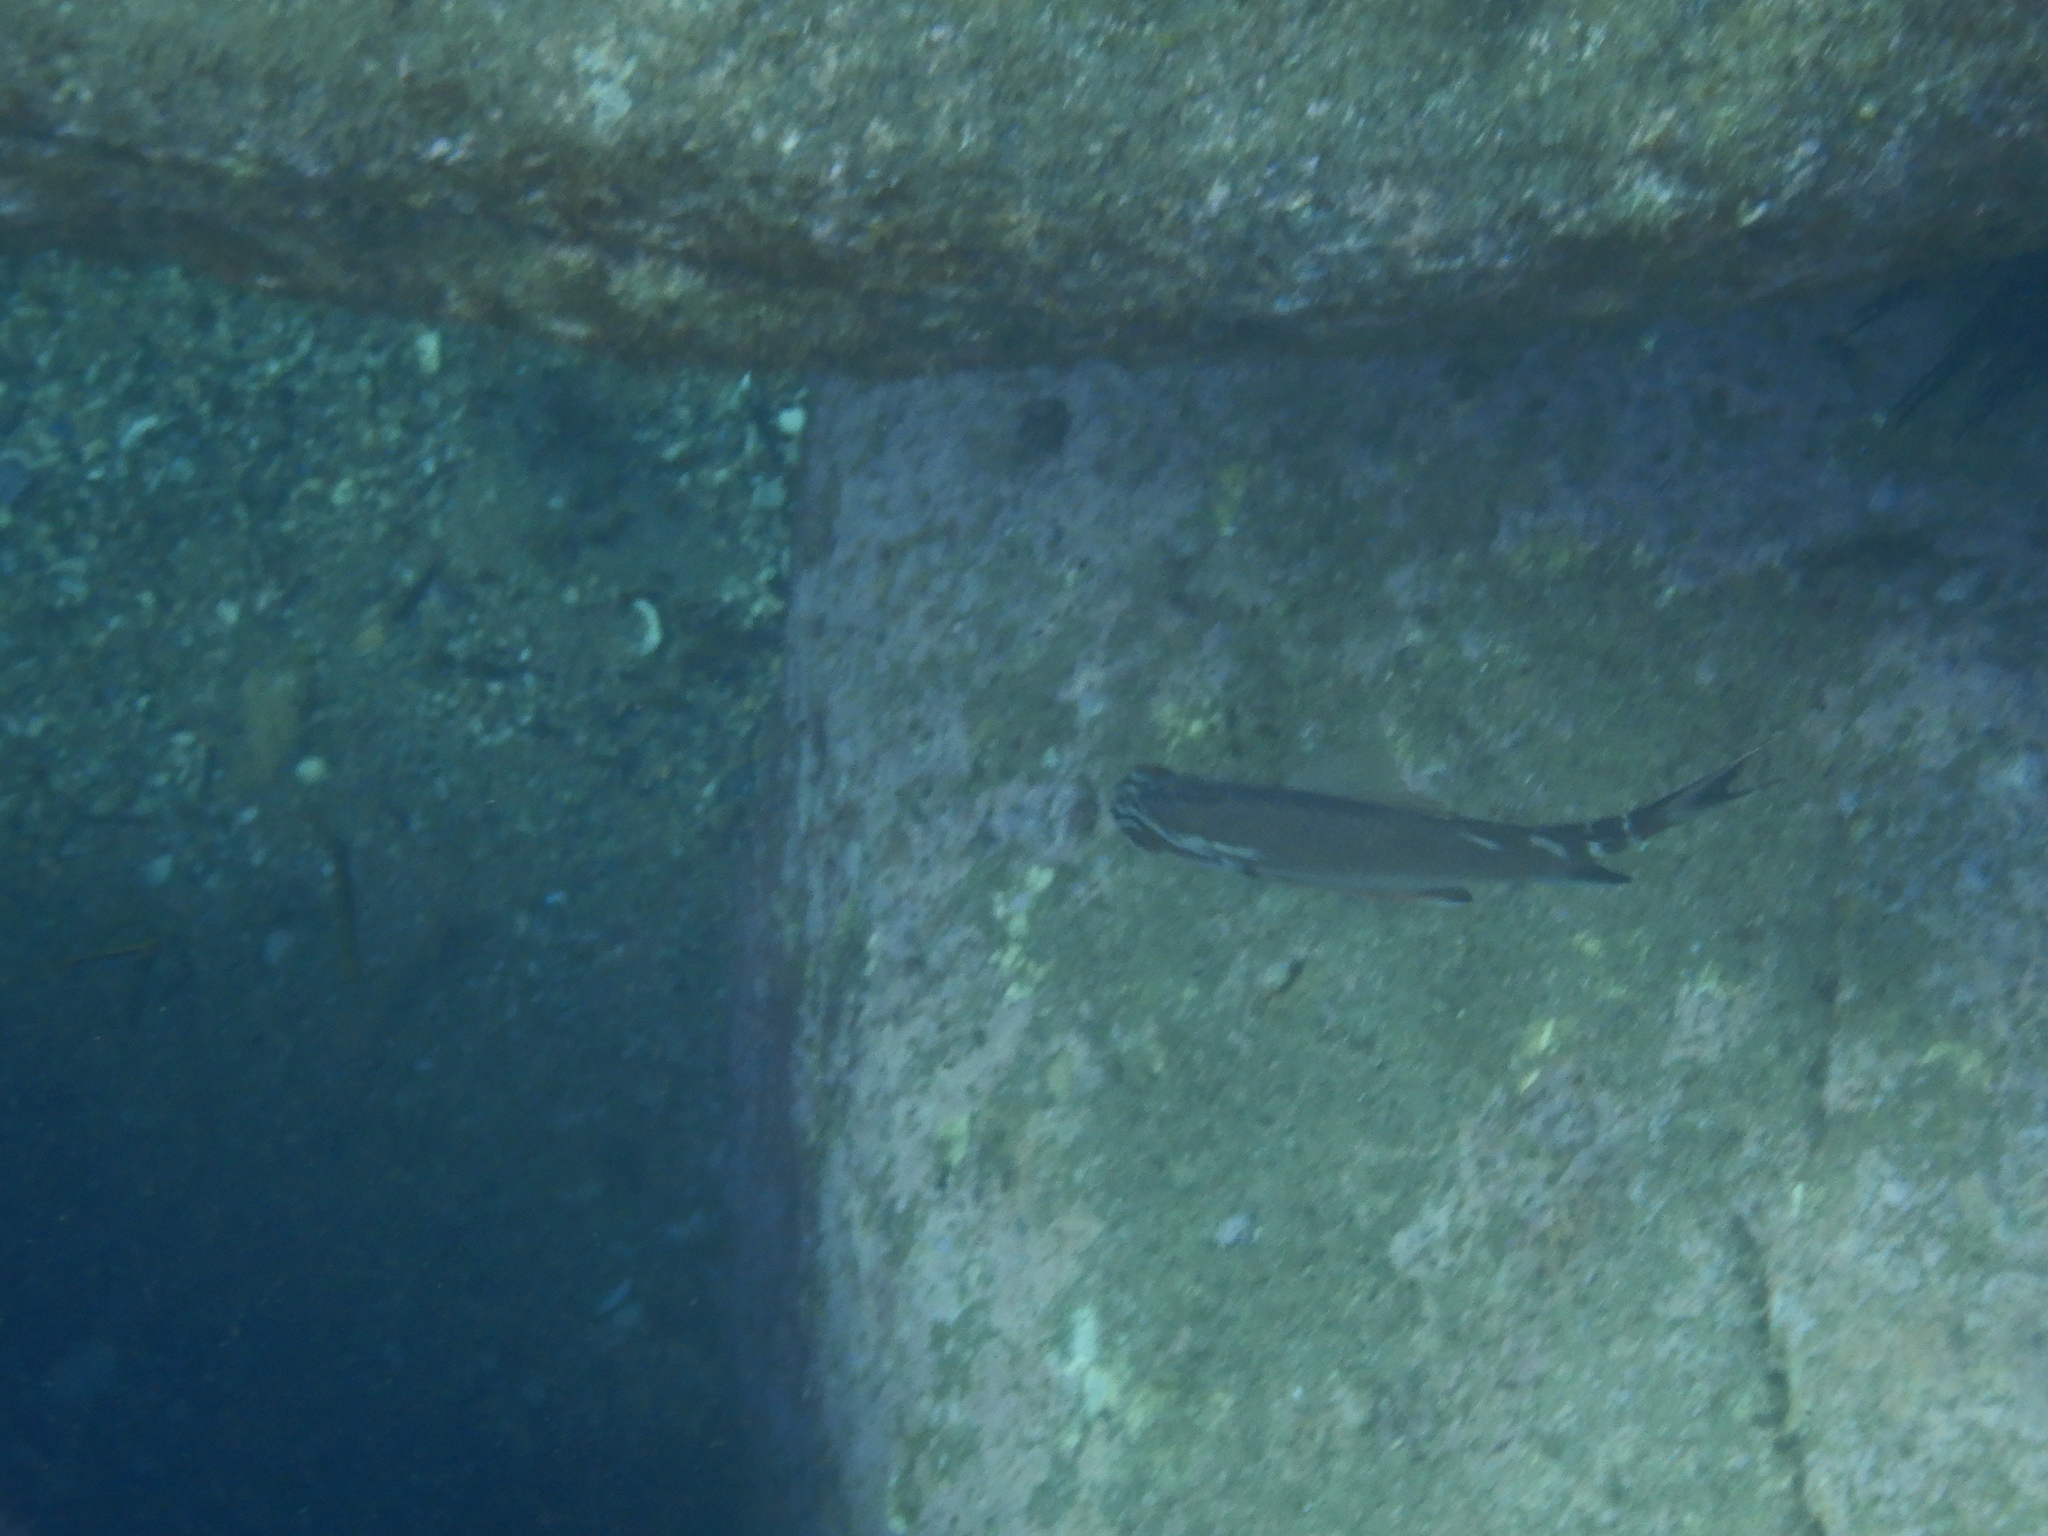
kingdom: Animalia
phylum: Chordata
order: Perciformes
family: Latridae
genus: Morwong
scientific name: Morwong fuscus
